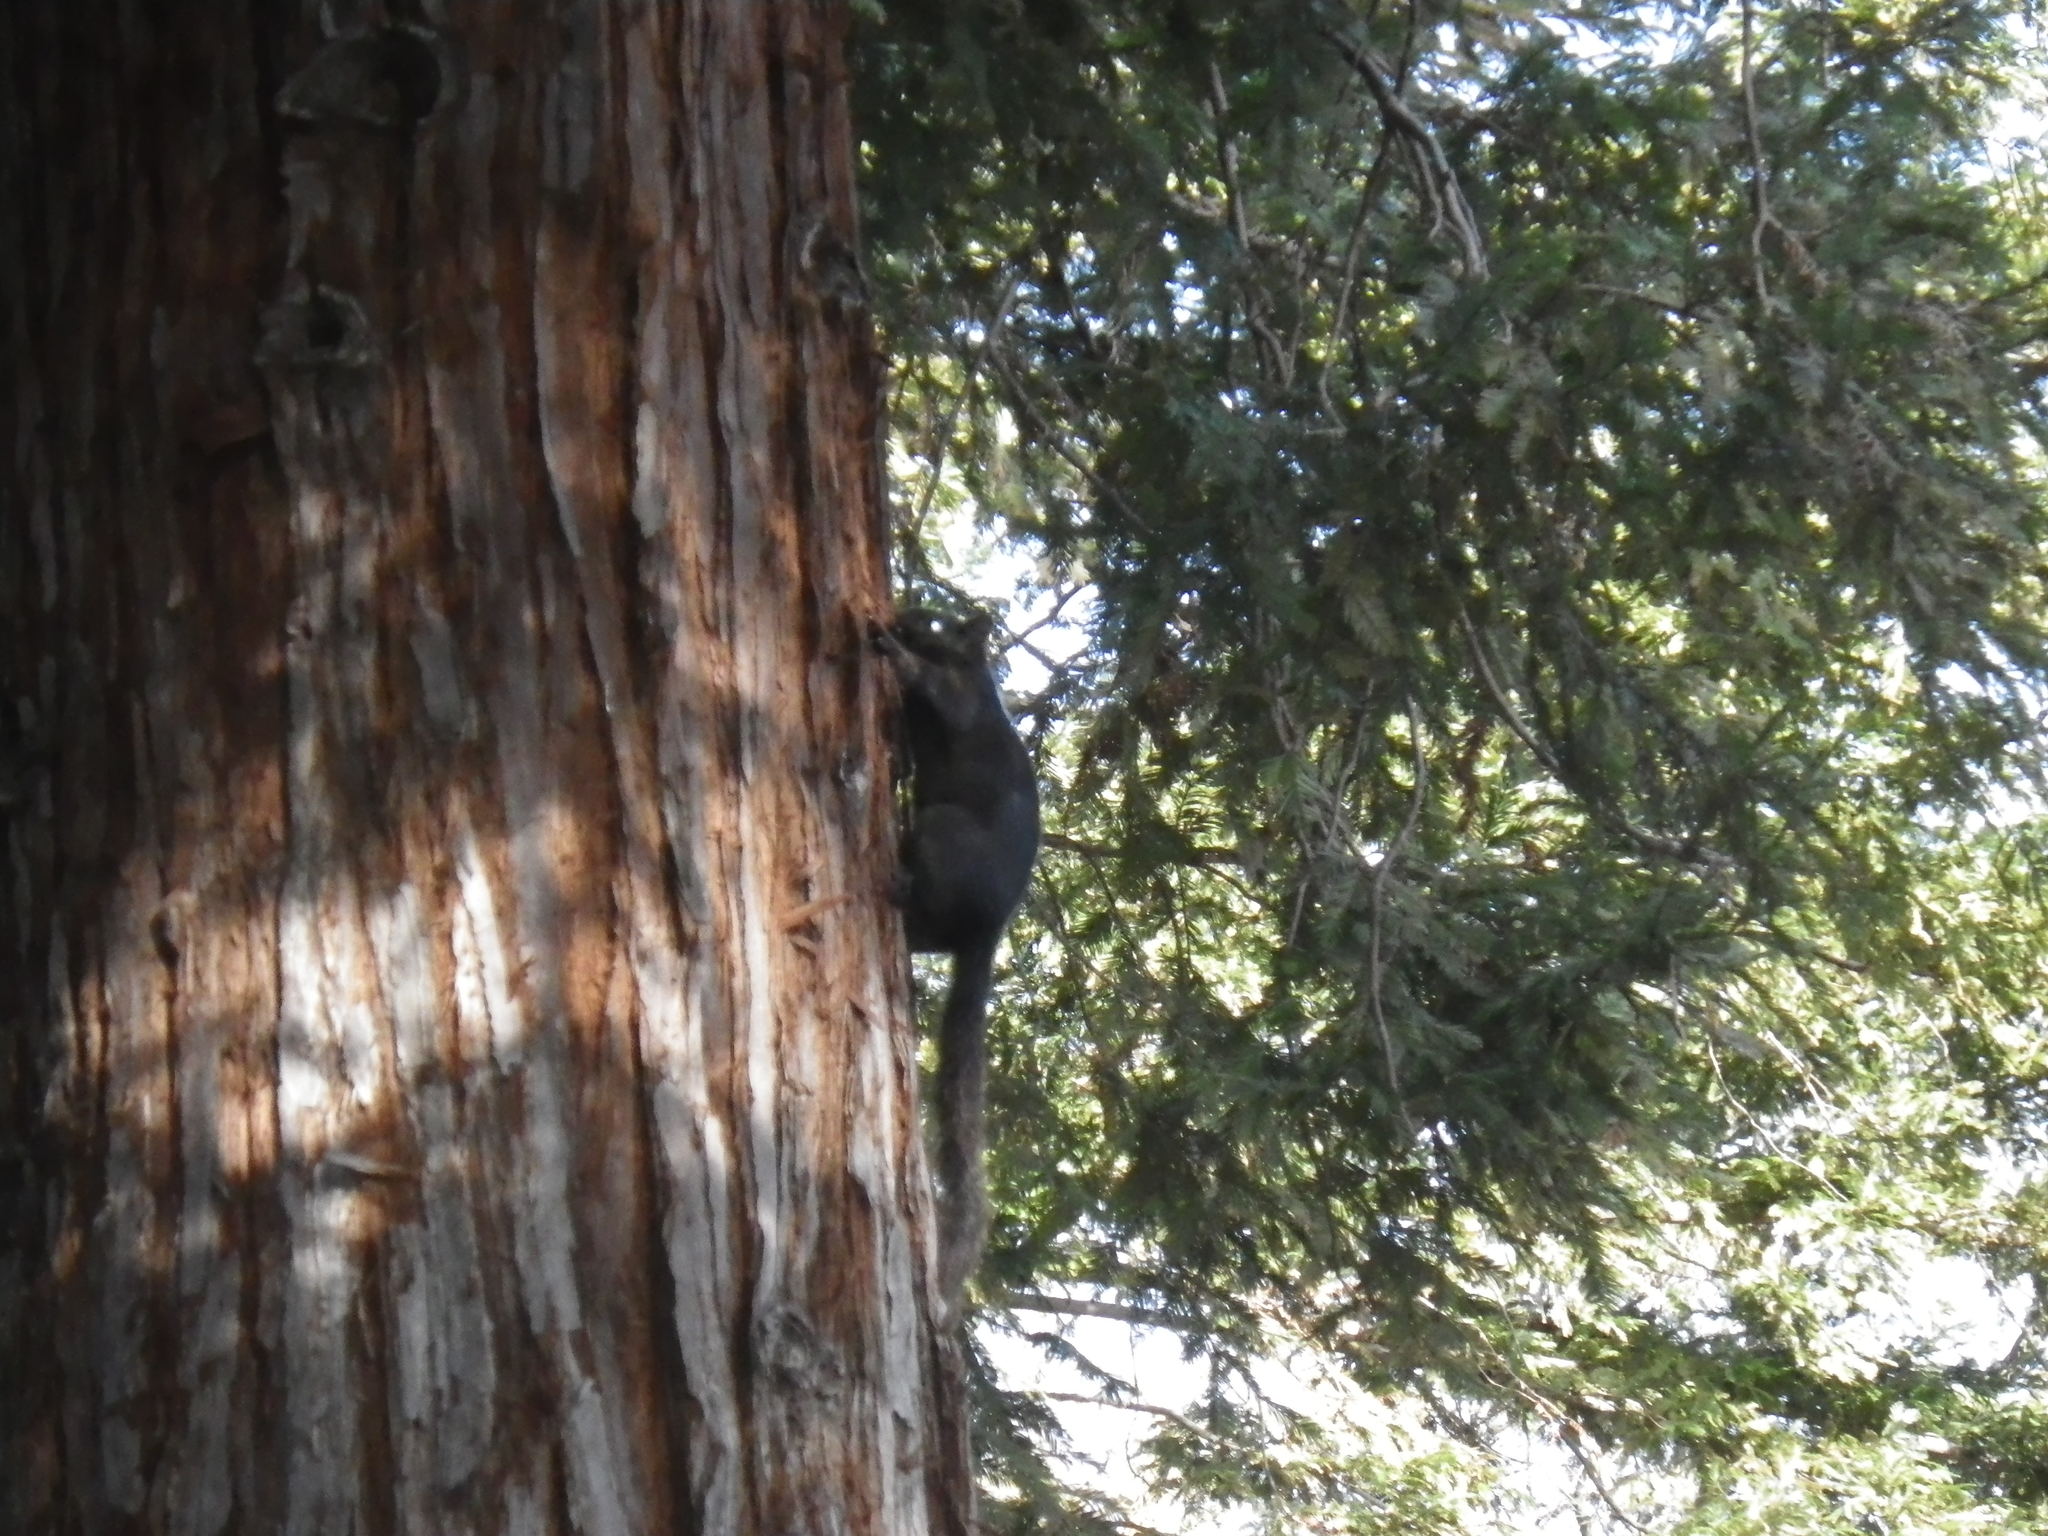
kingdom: Animalia
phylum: Chordata
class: Mammalia
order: Rodentia
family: Sciuridae
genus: Sciurus
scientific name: Sciurus carolinensis
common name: Eastern gray squirrel
